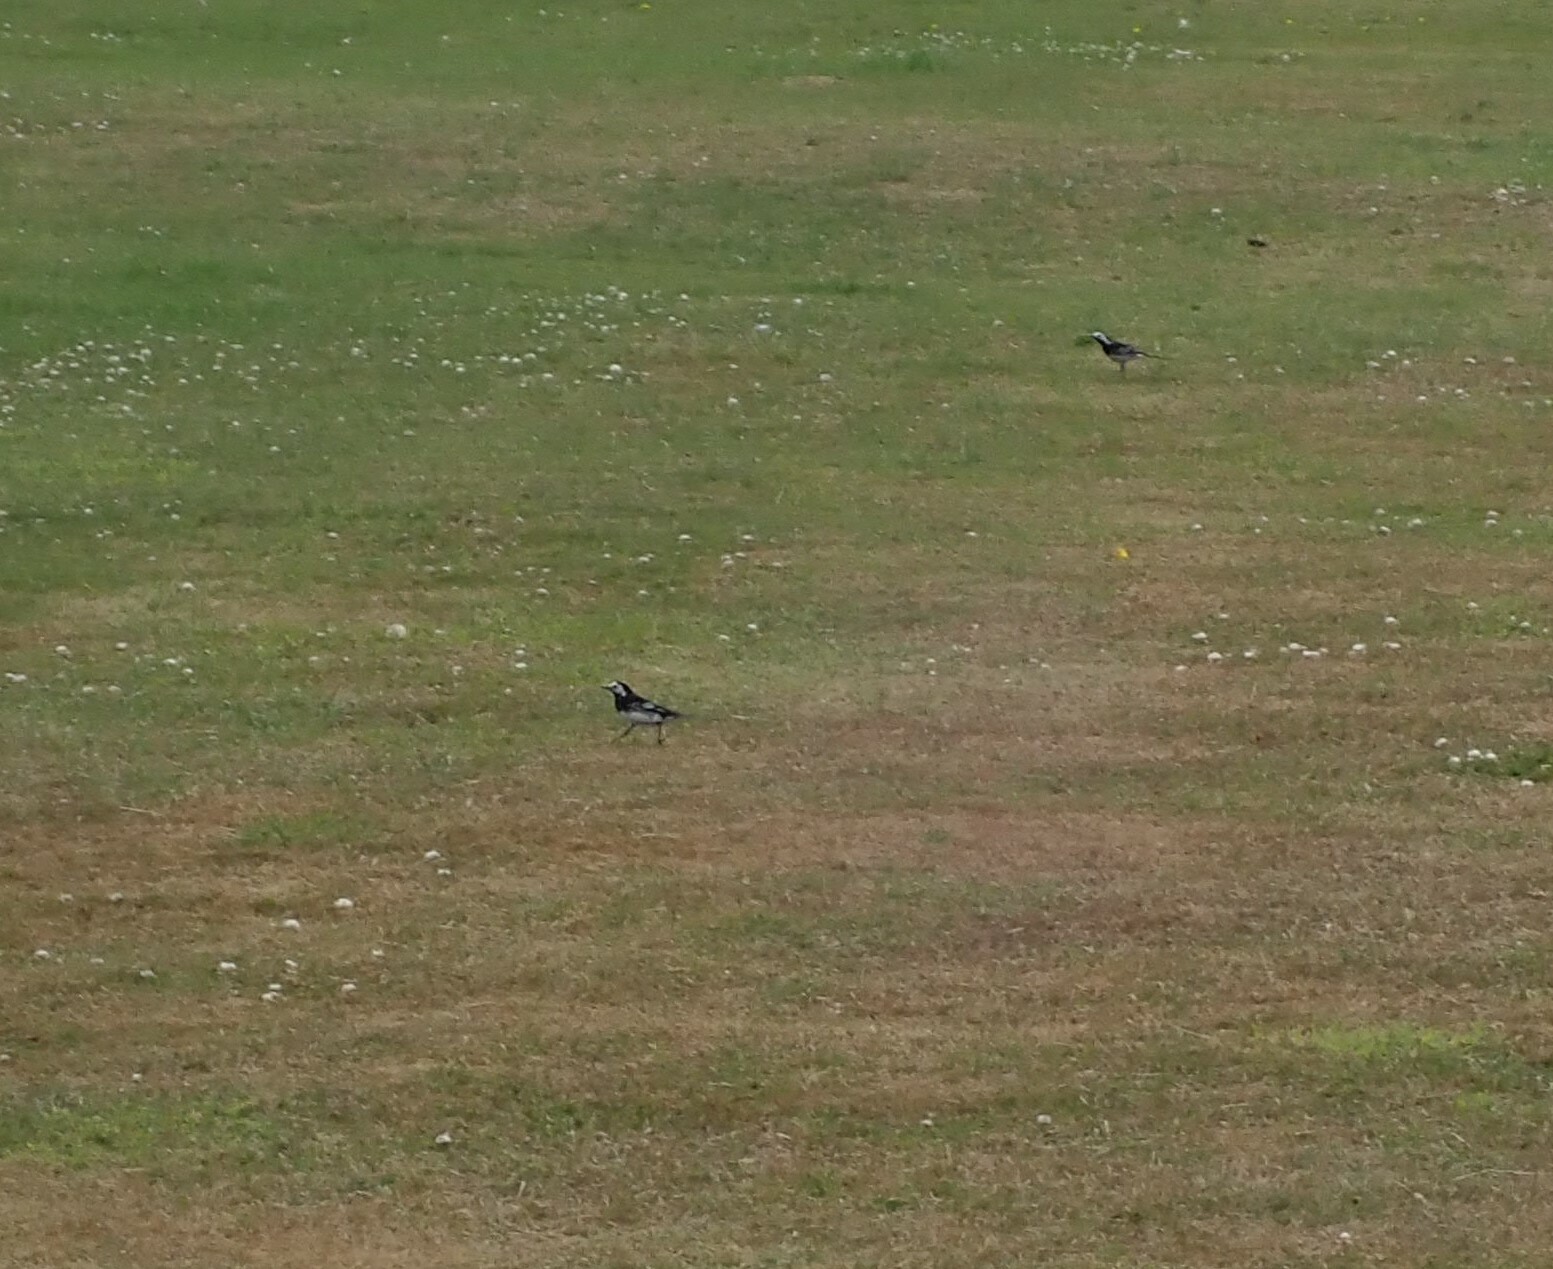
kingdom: Animalia
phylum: Chordata
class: Aves
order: Passeriformes
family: Motacillidae
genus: Motacilla
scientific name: Motacilla alba
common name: White wagtail
